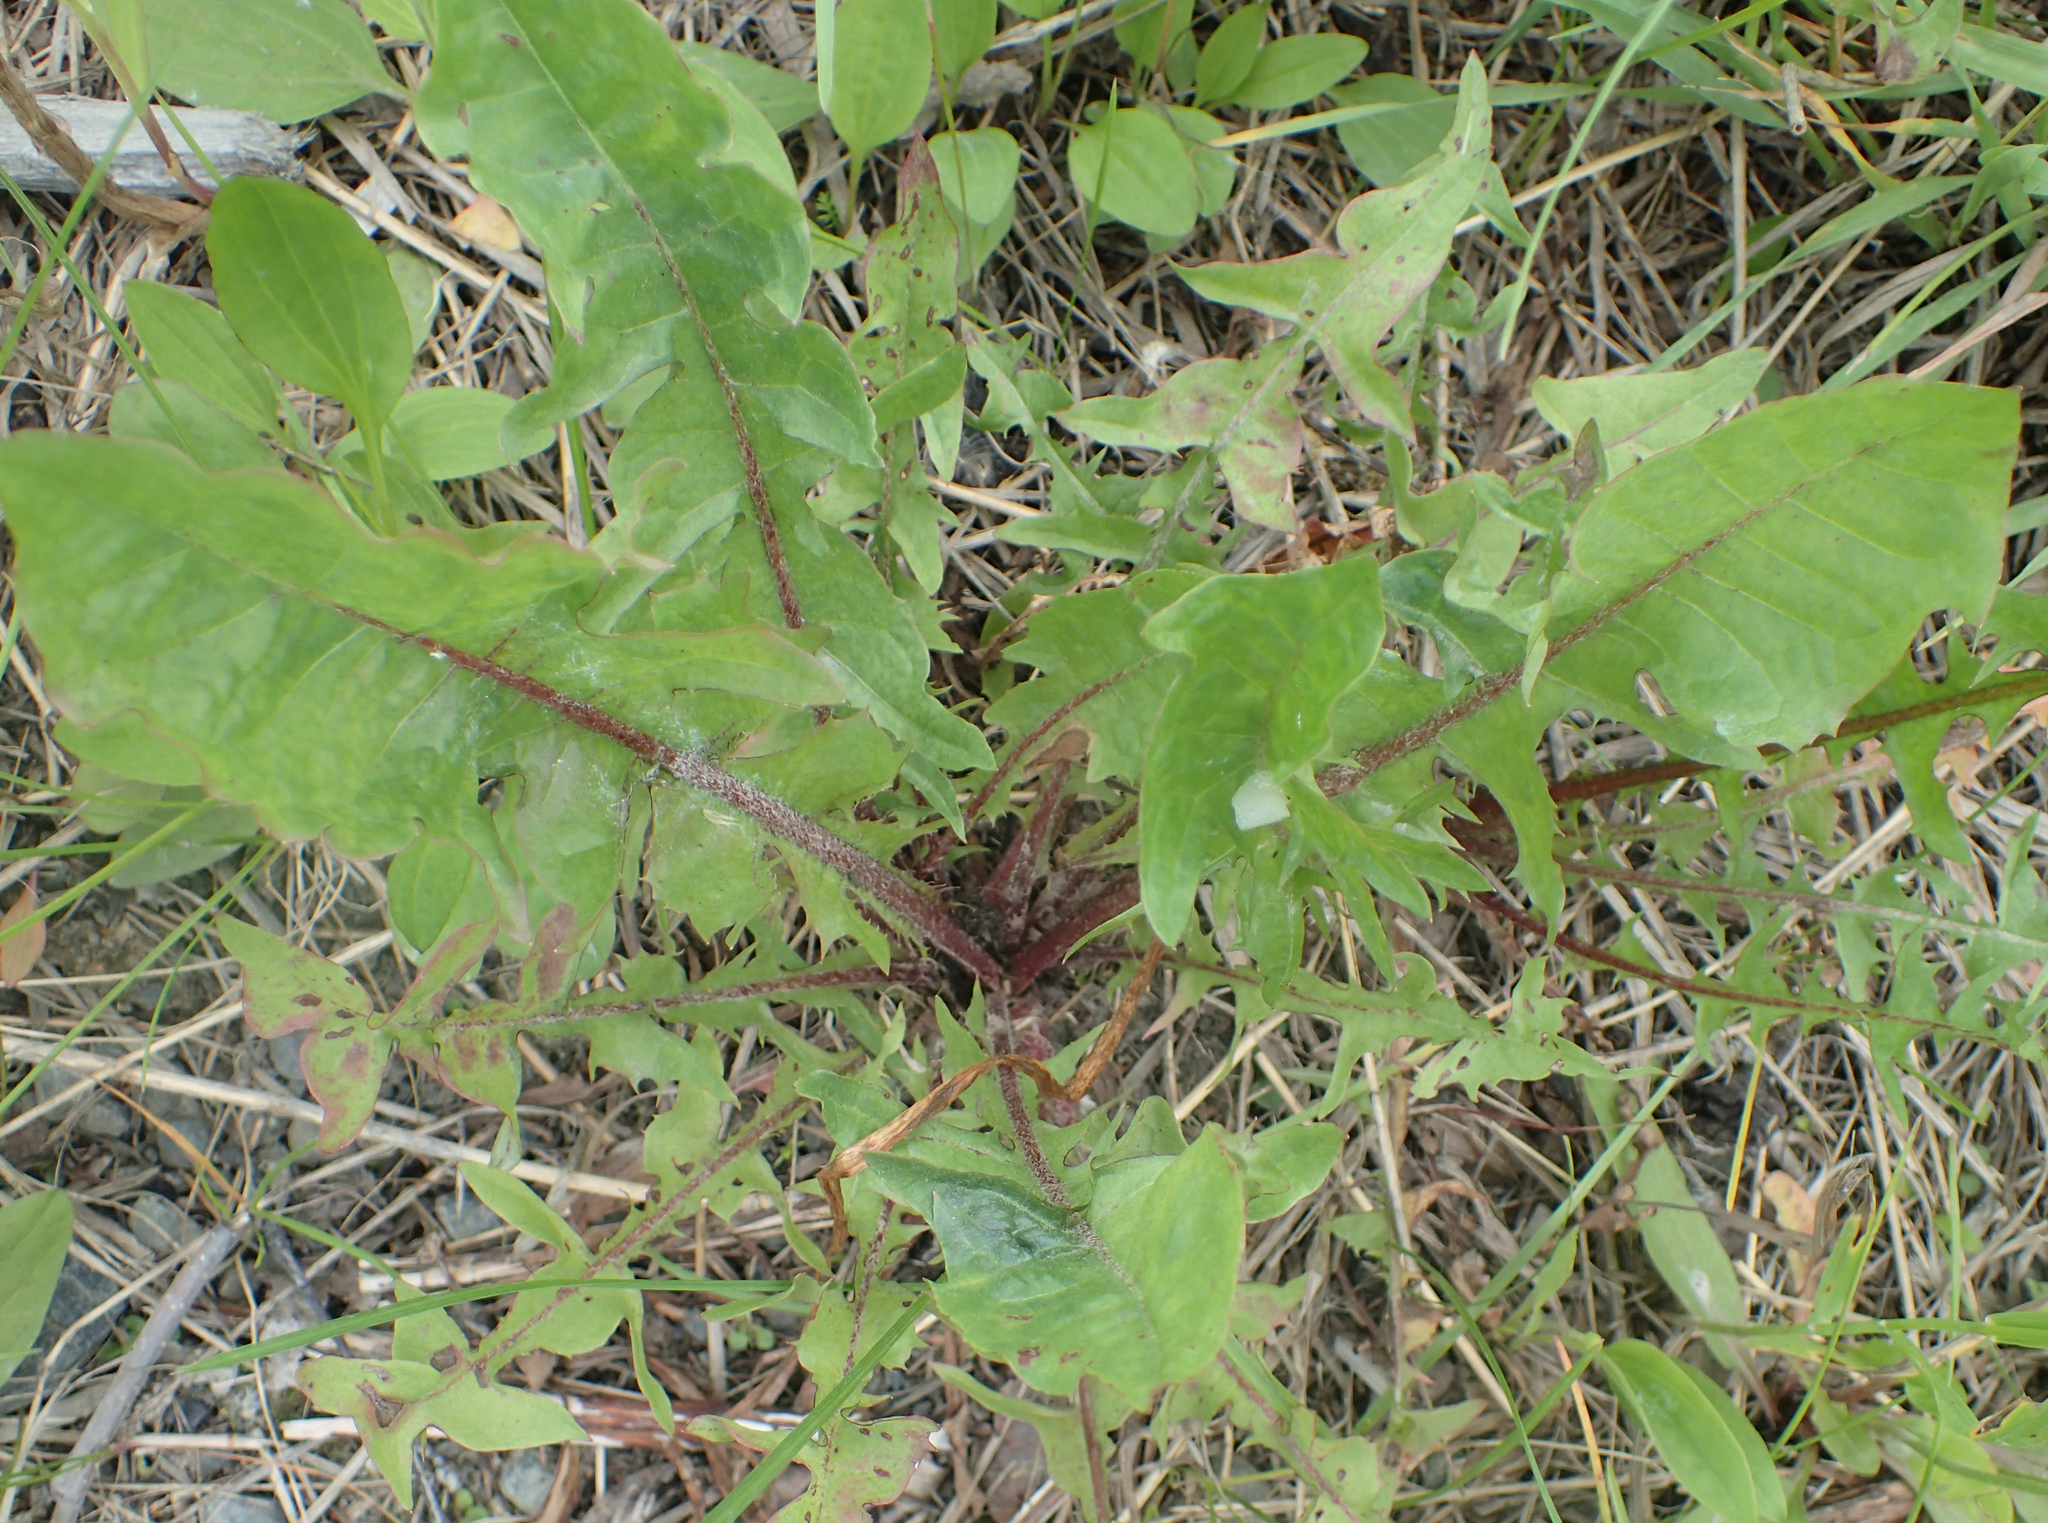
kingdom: Plantae
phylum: Tracheophyta
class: Magnoliopsida
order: Asterales
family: Asteraceae
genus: Taraxacum
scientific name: Taraxacum officinale
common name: Common dandelion
